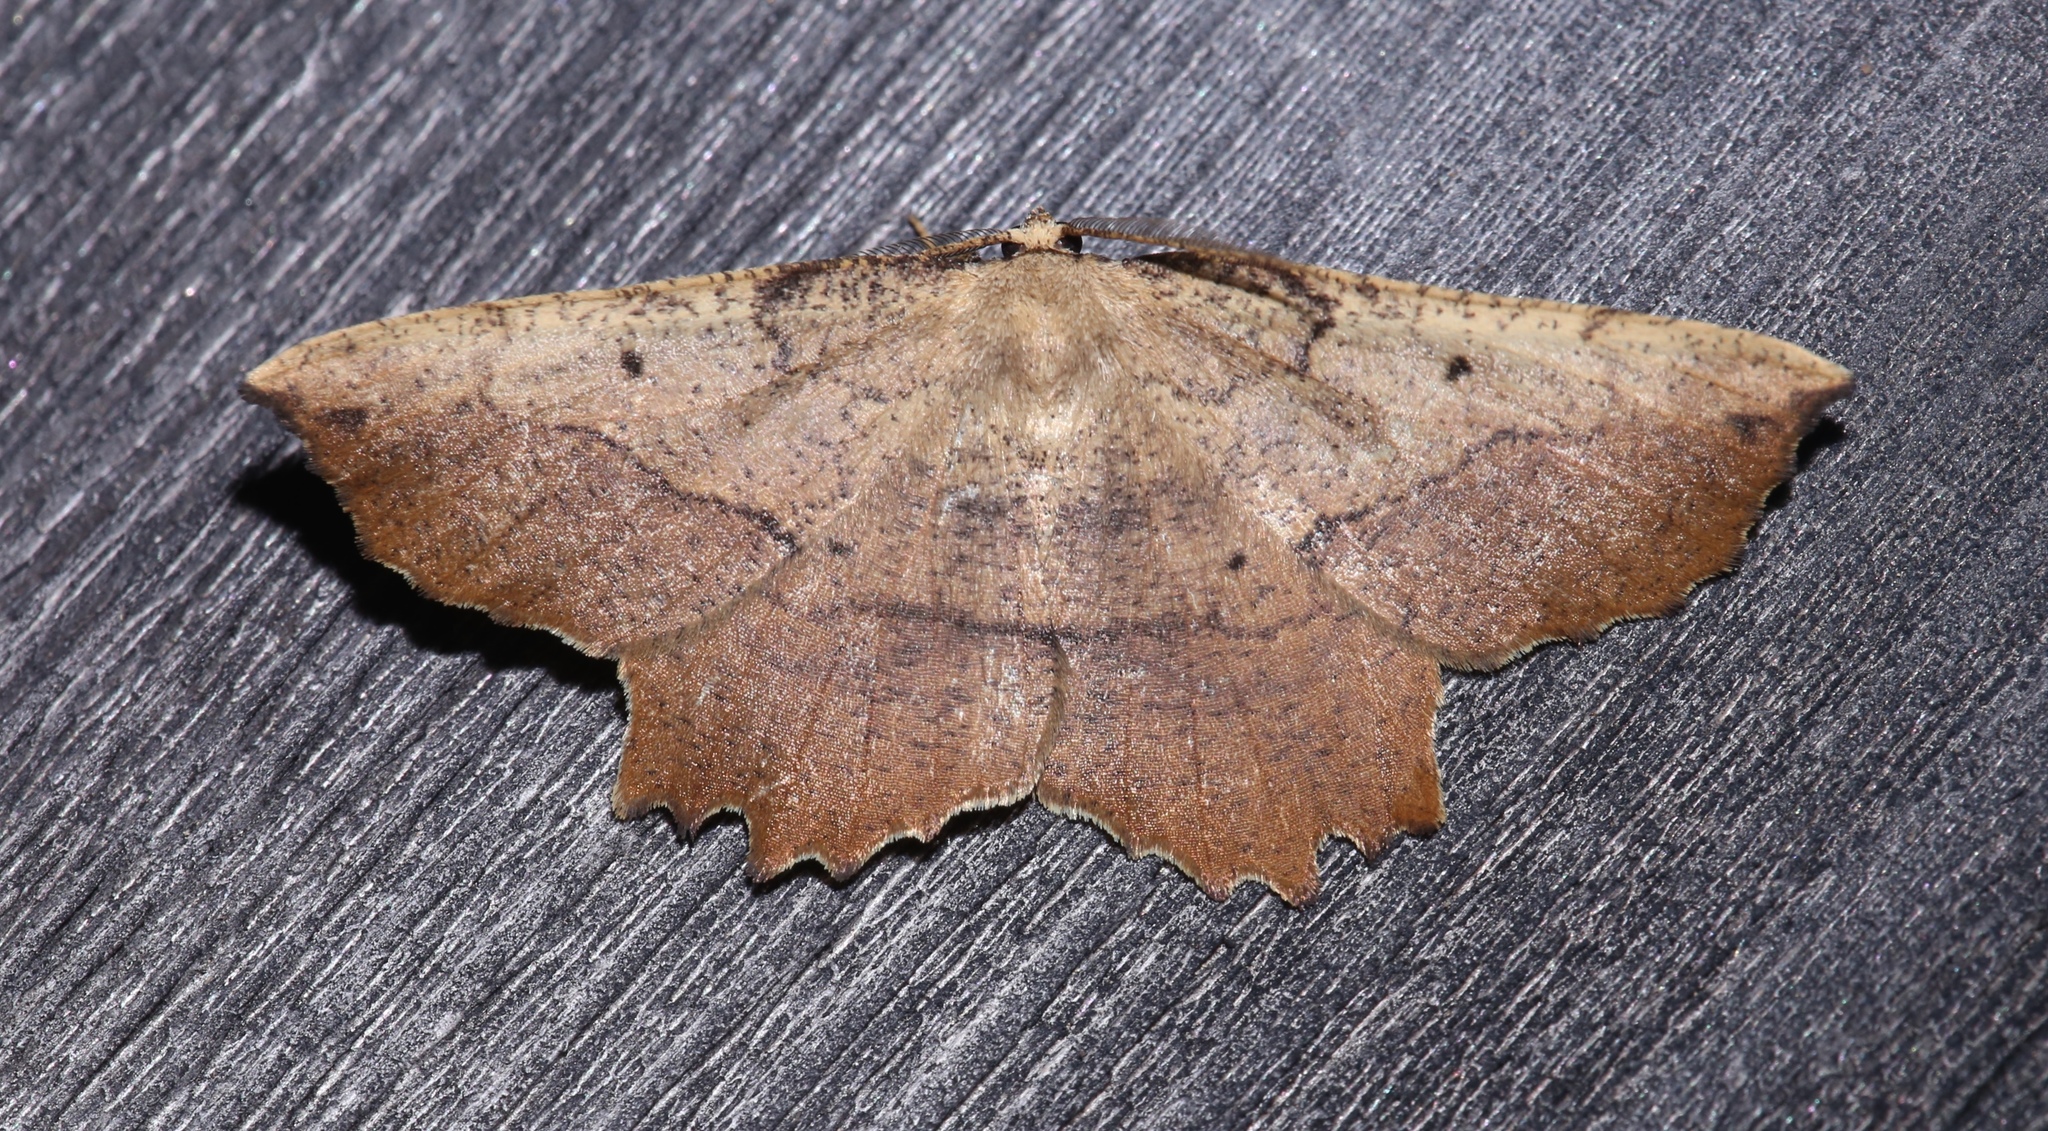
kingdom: Animalia
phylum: Arthropoda
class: Insecta
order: Lepidoptera
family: Geometridae
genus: Euchlaena
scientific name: Euchlaena muzaria
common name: Muzaria euchlaena
